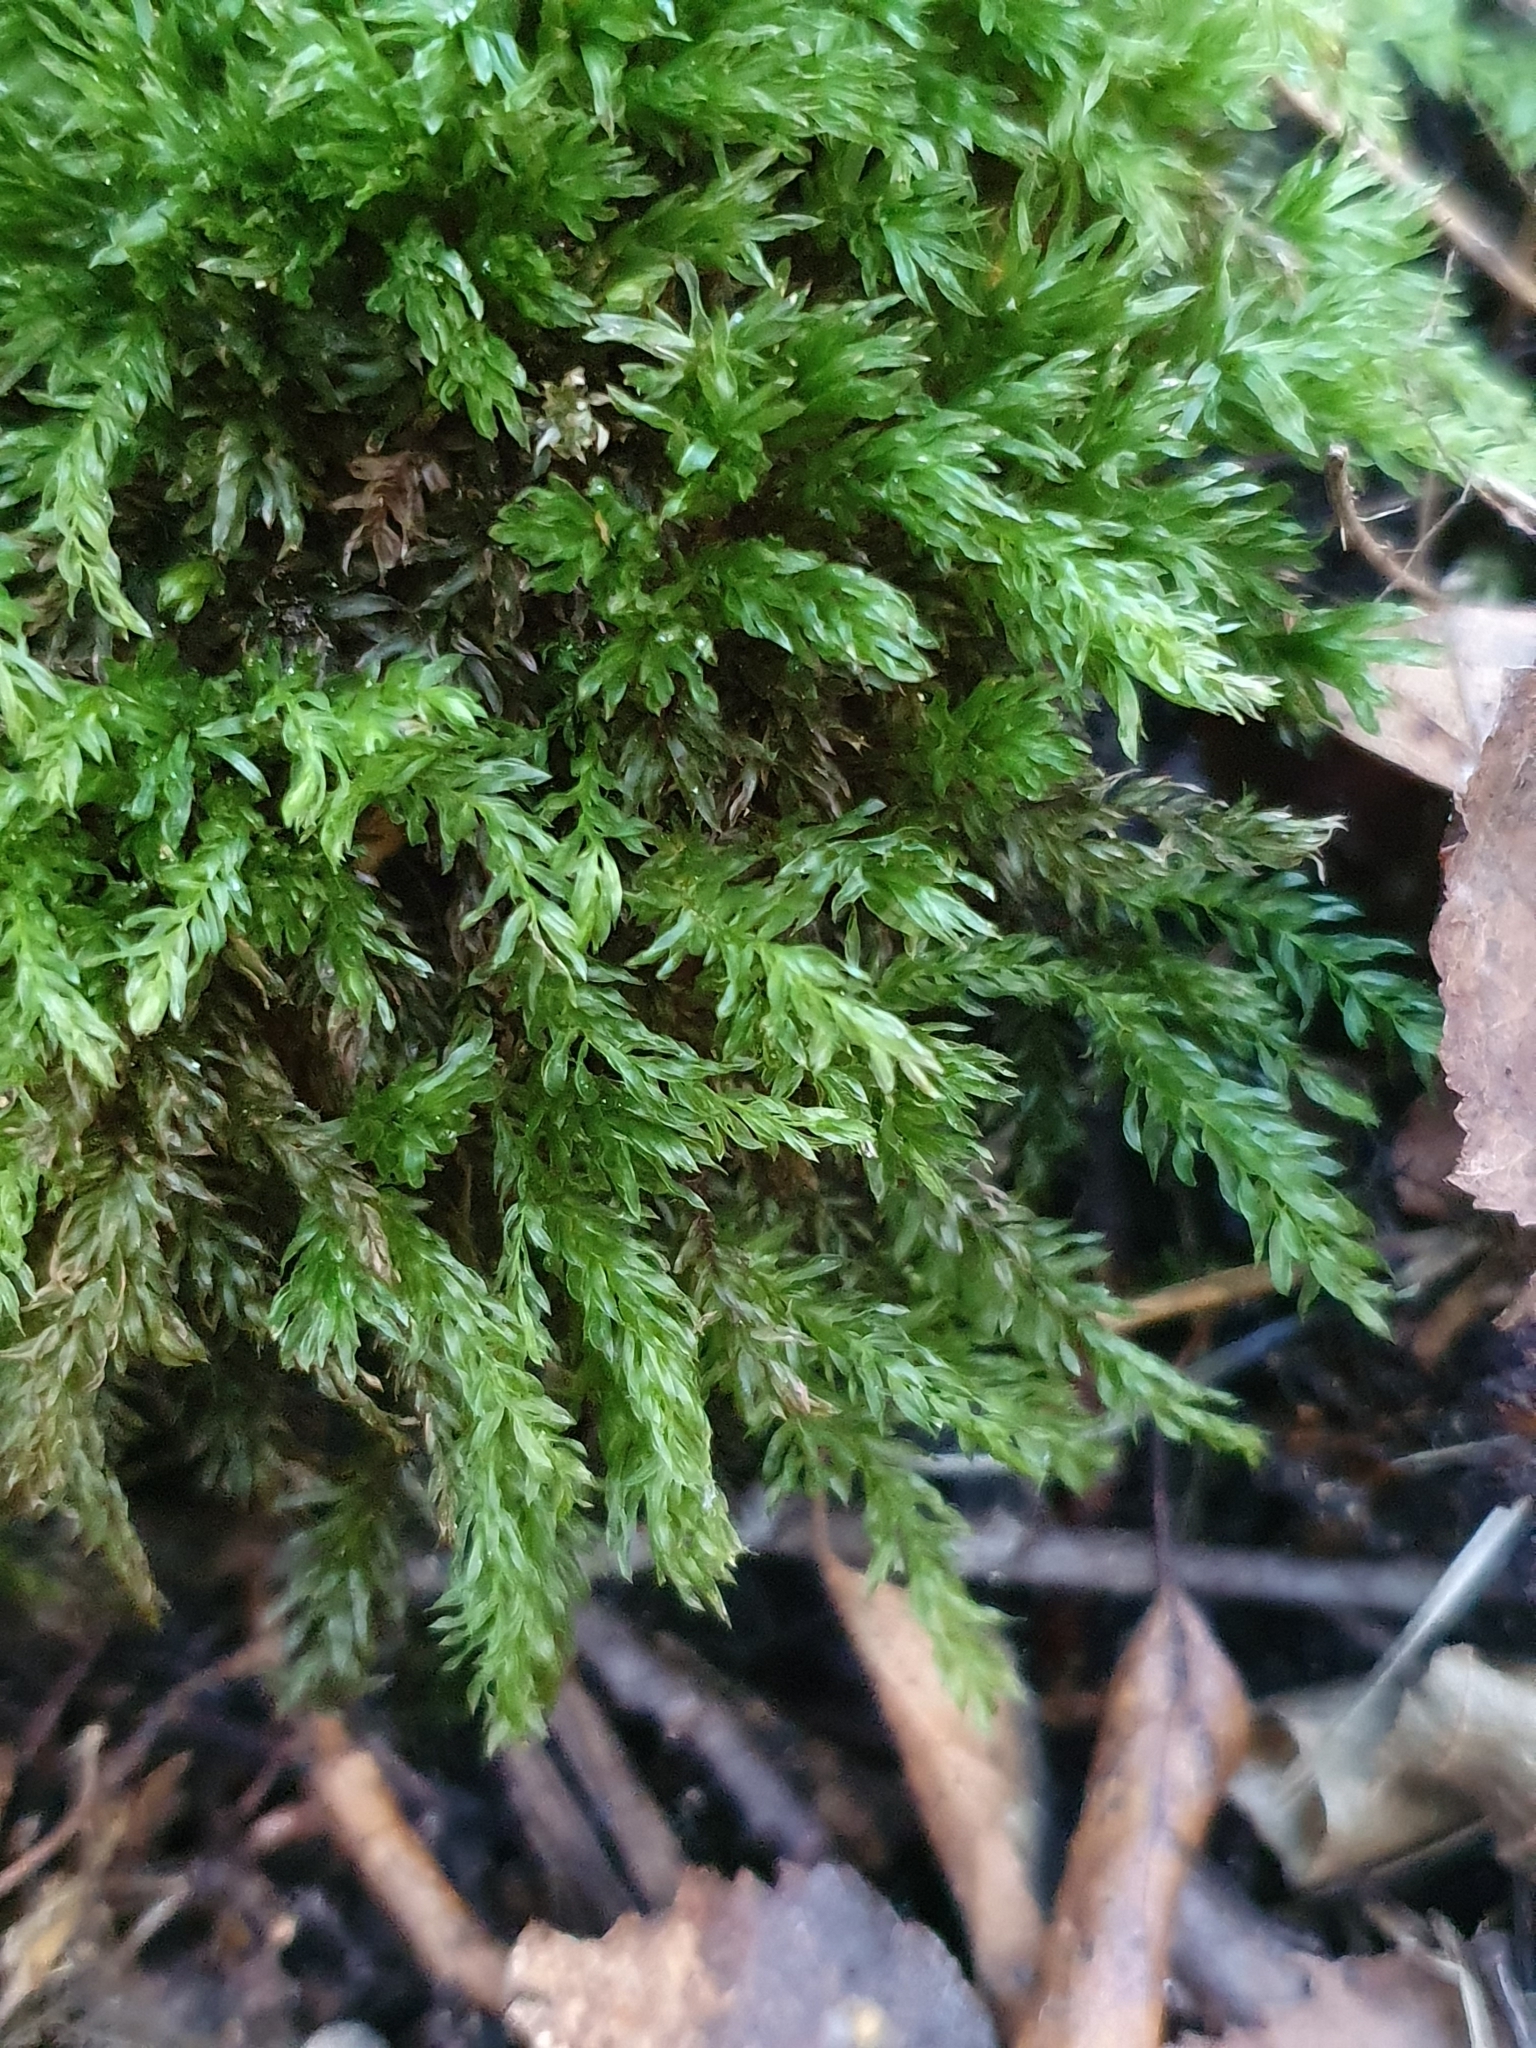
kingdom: Plantae
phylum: Bryophyta
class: Bryopsida
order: Bryales
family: Mniaceae
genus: Mnium
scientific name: Mnium hornum
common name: Swan's-neck leafy moss
